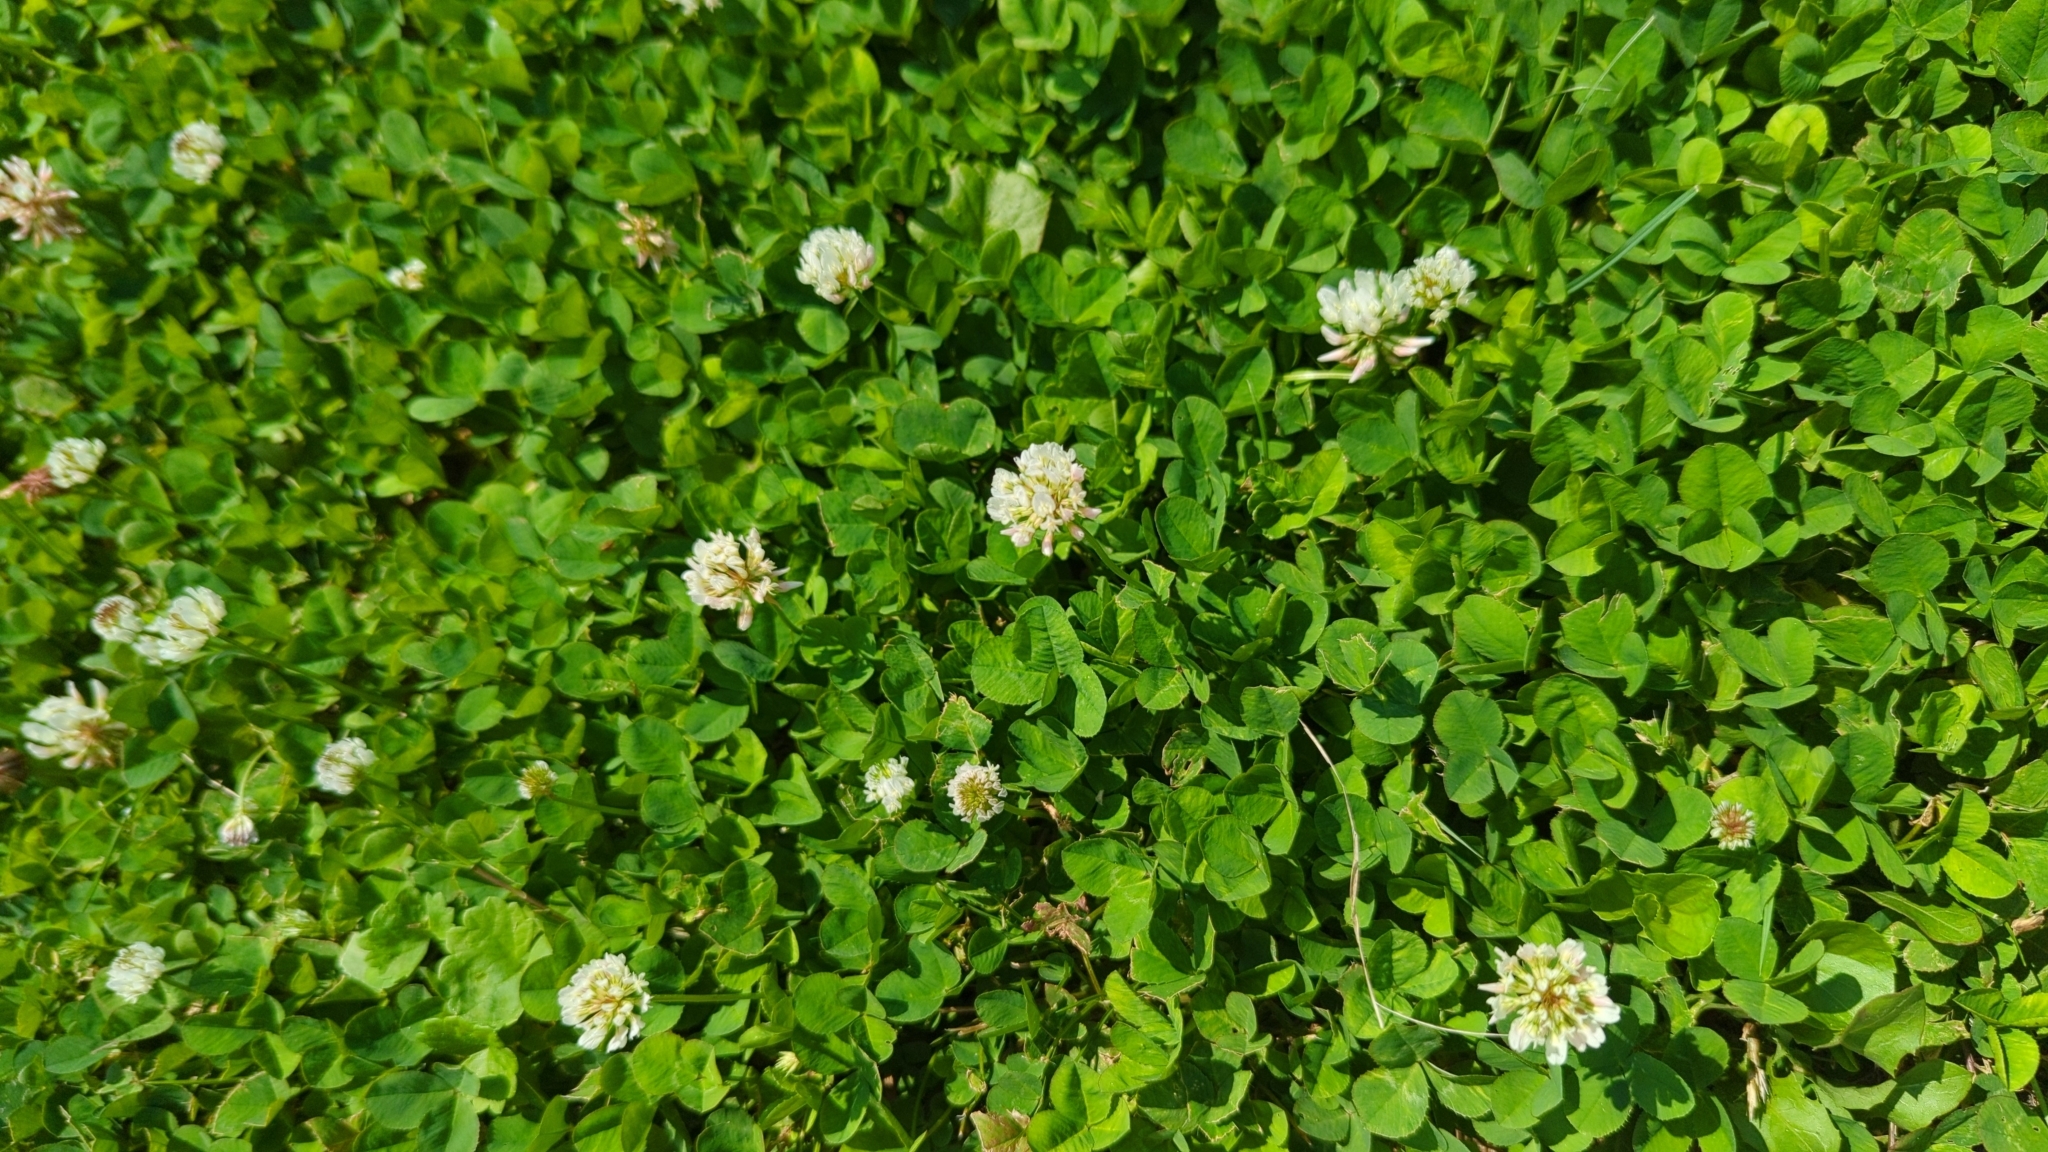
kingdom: Plantae
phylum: Tracheophyta
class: Magnoliopsida
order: Fabales
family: Fabaceae
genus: Trifolium
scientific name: Trifolium repens
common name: White clover
